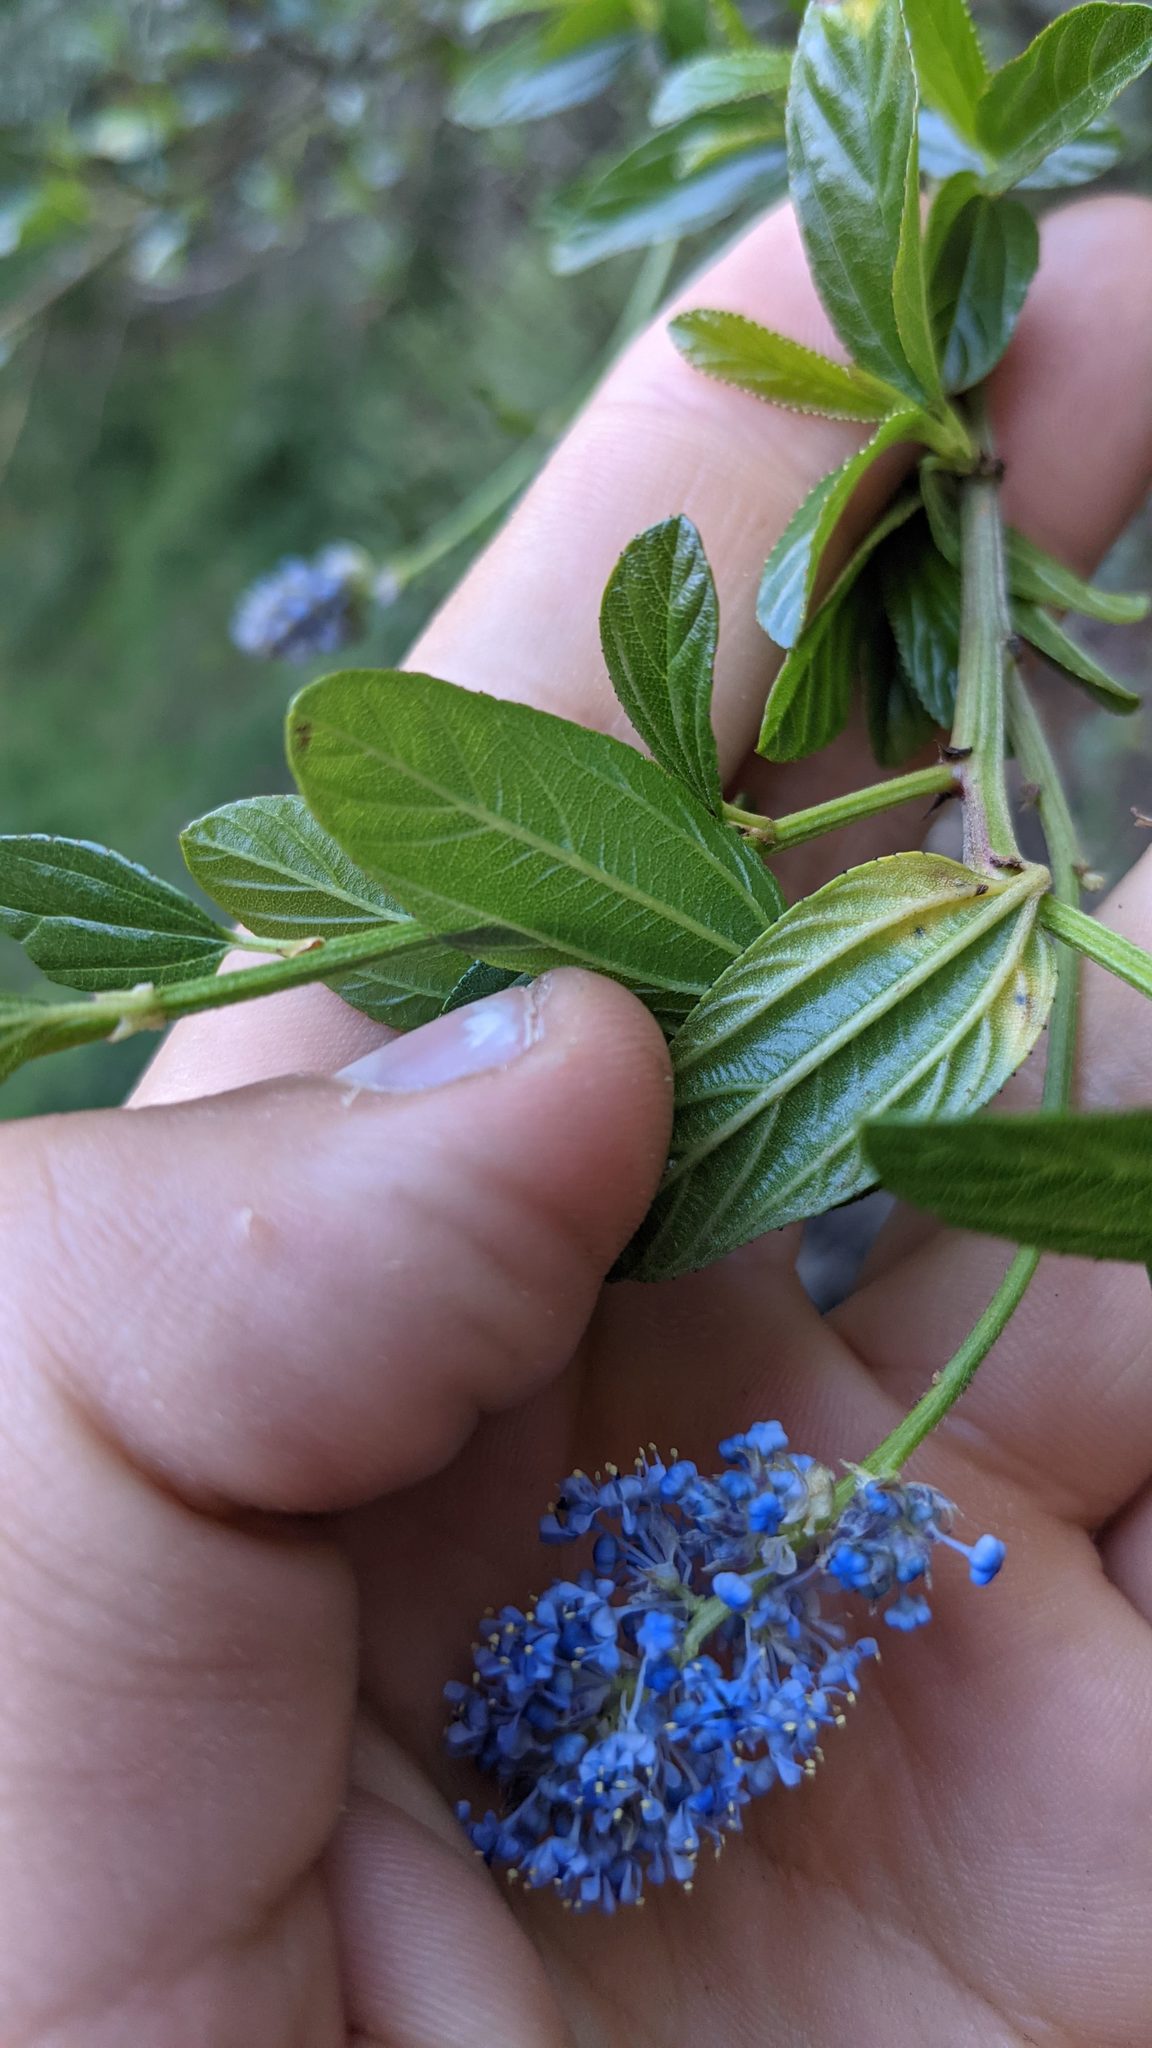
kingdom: Plantae
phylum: Tracheophyta
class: Magnoliopsida
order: Rosales
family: Rhamnaceae
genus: Ceanothus
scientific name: Ceanothus thyrsiflorus
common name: California-lilac
